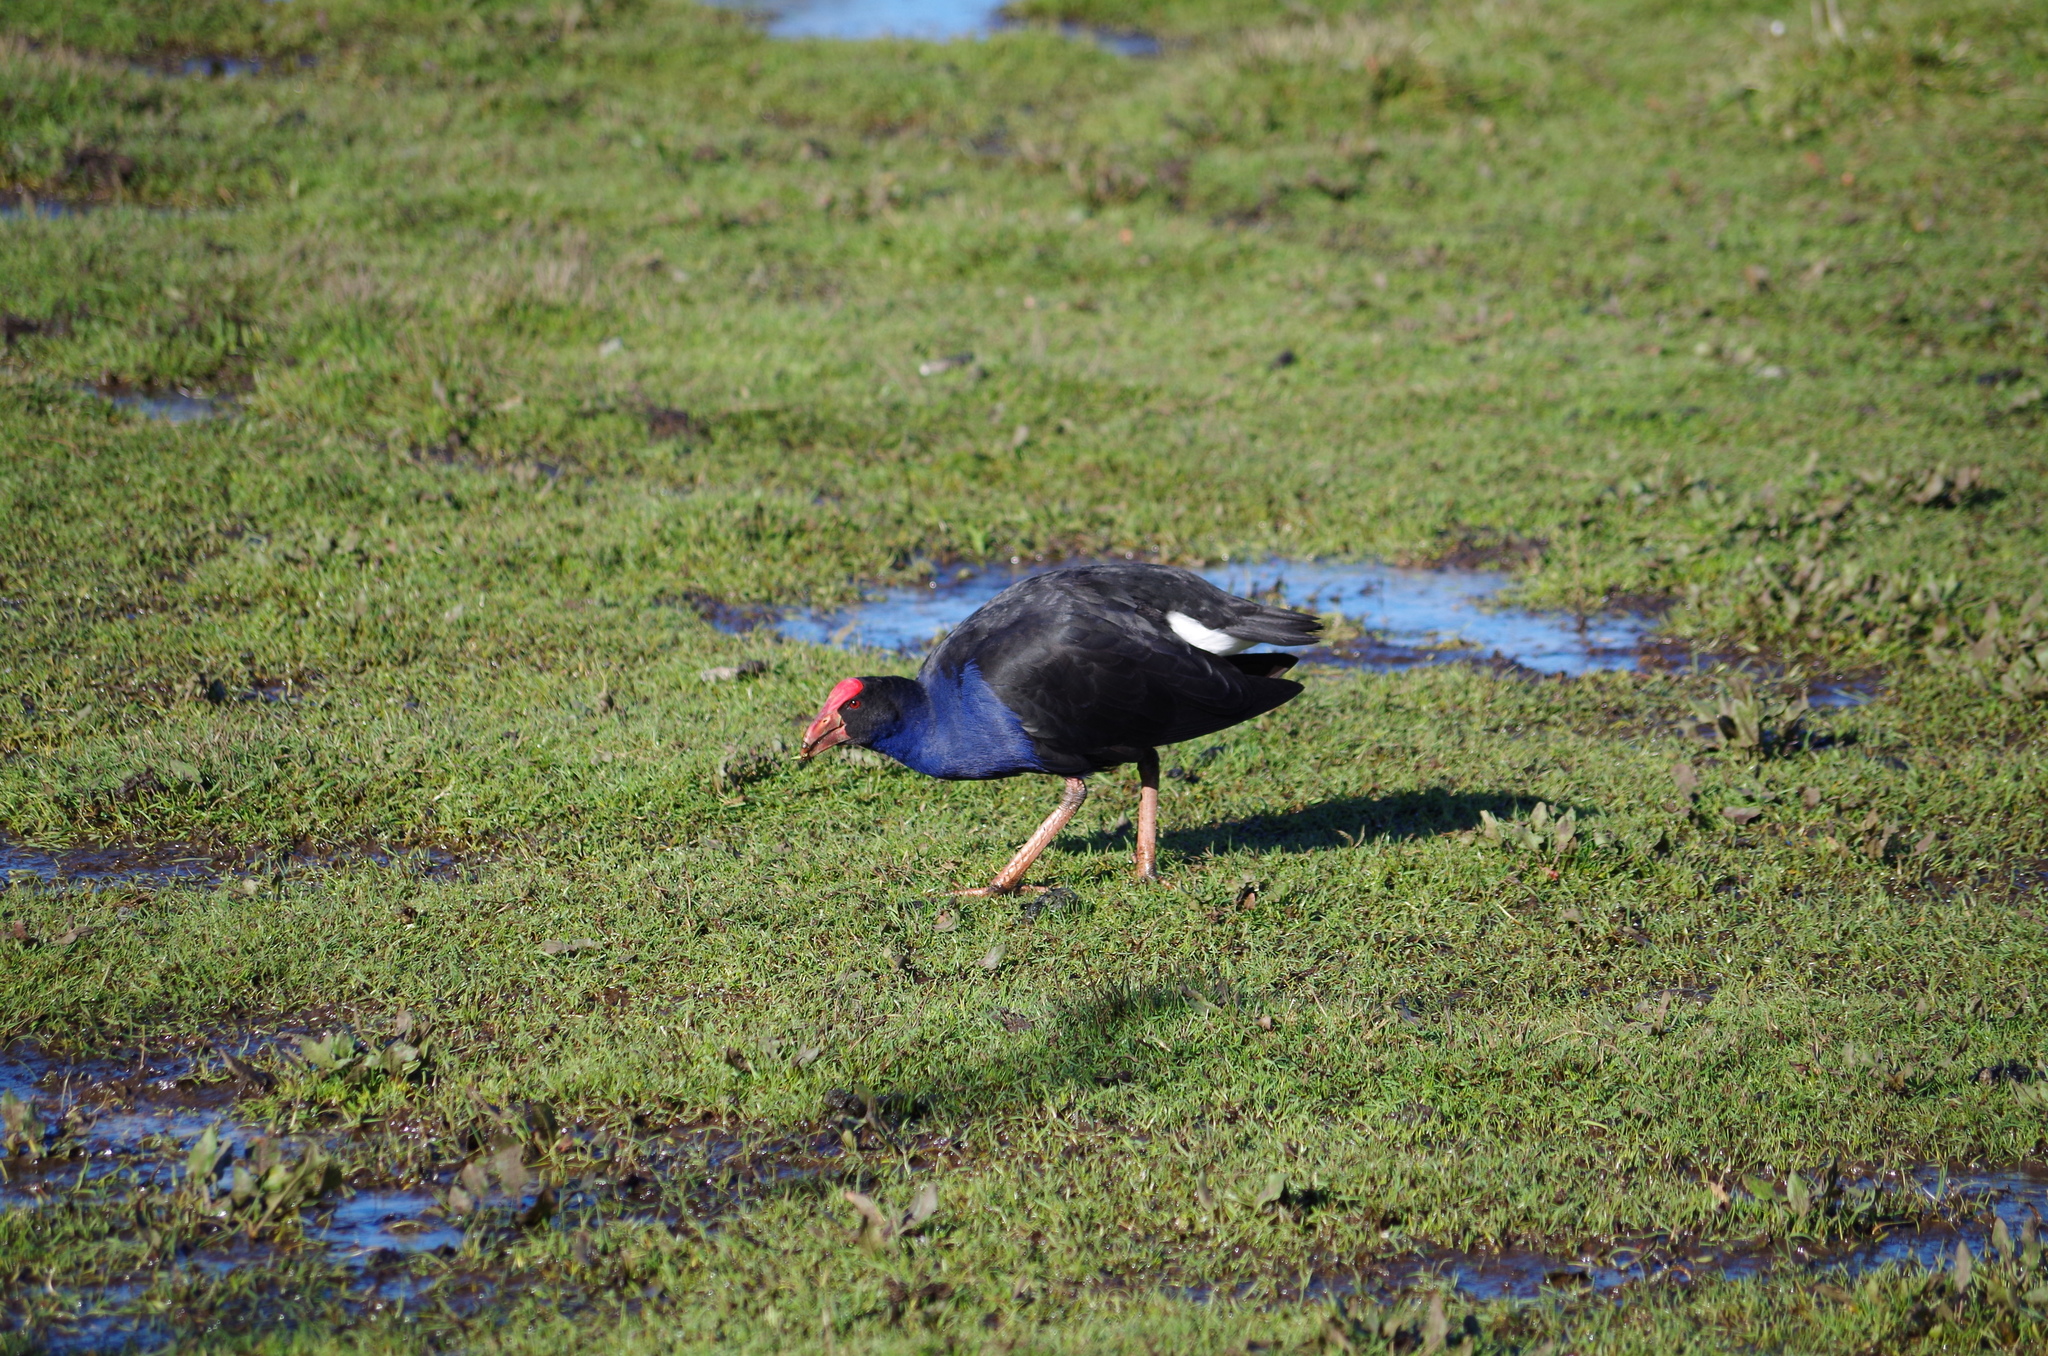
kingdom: Animalia
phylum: Chordata
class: Aves
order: Gruiformes
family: Rallidae
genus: Porphyrio
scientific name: Porphyrio melanotus
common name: Australasian swamphen
